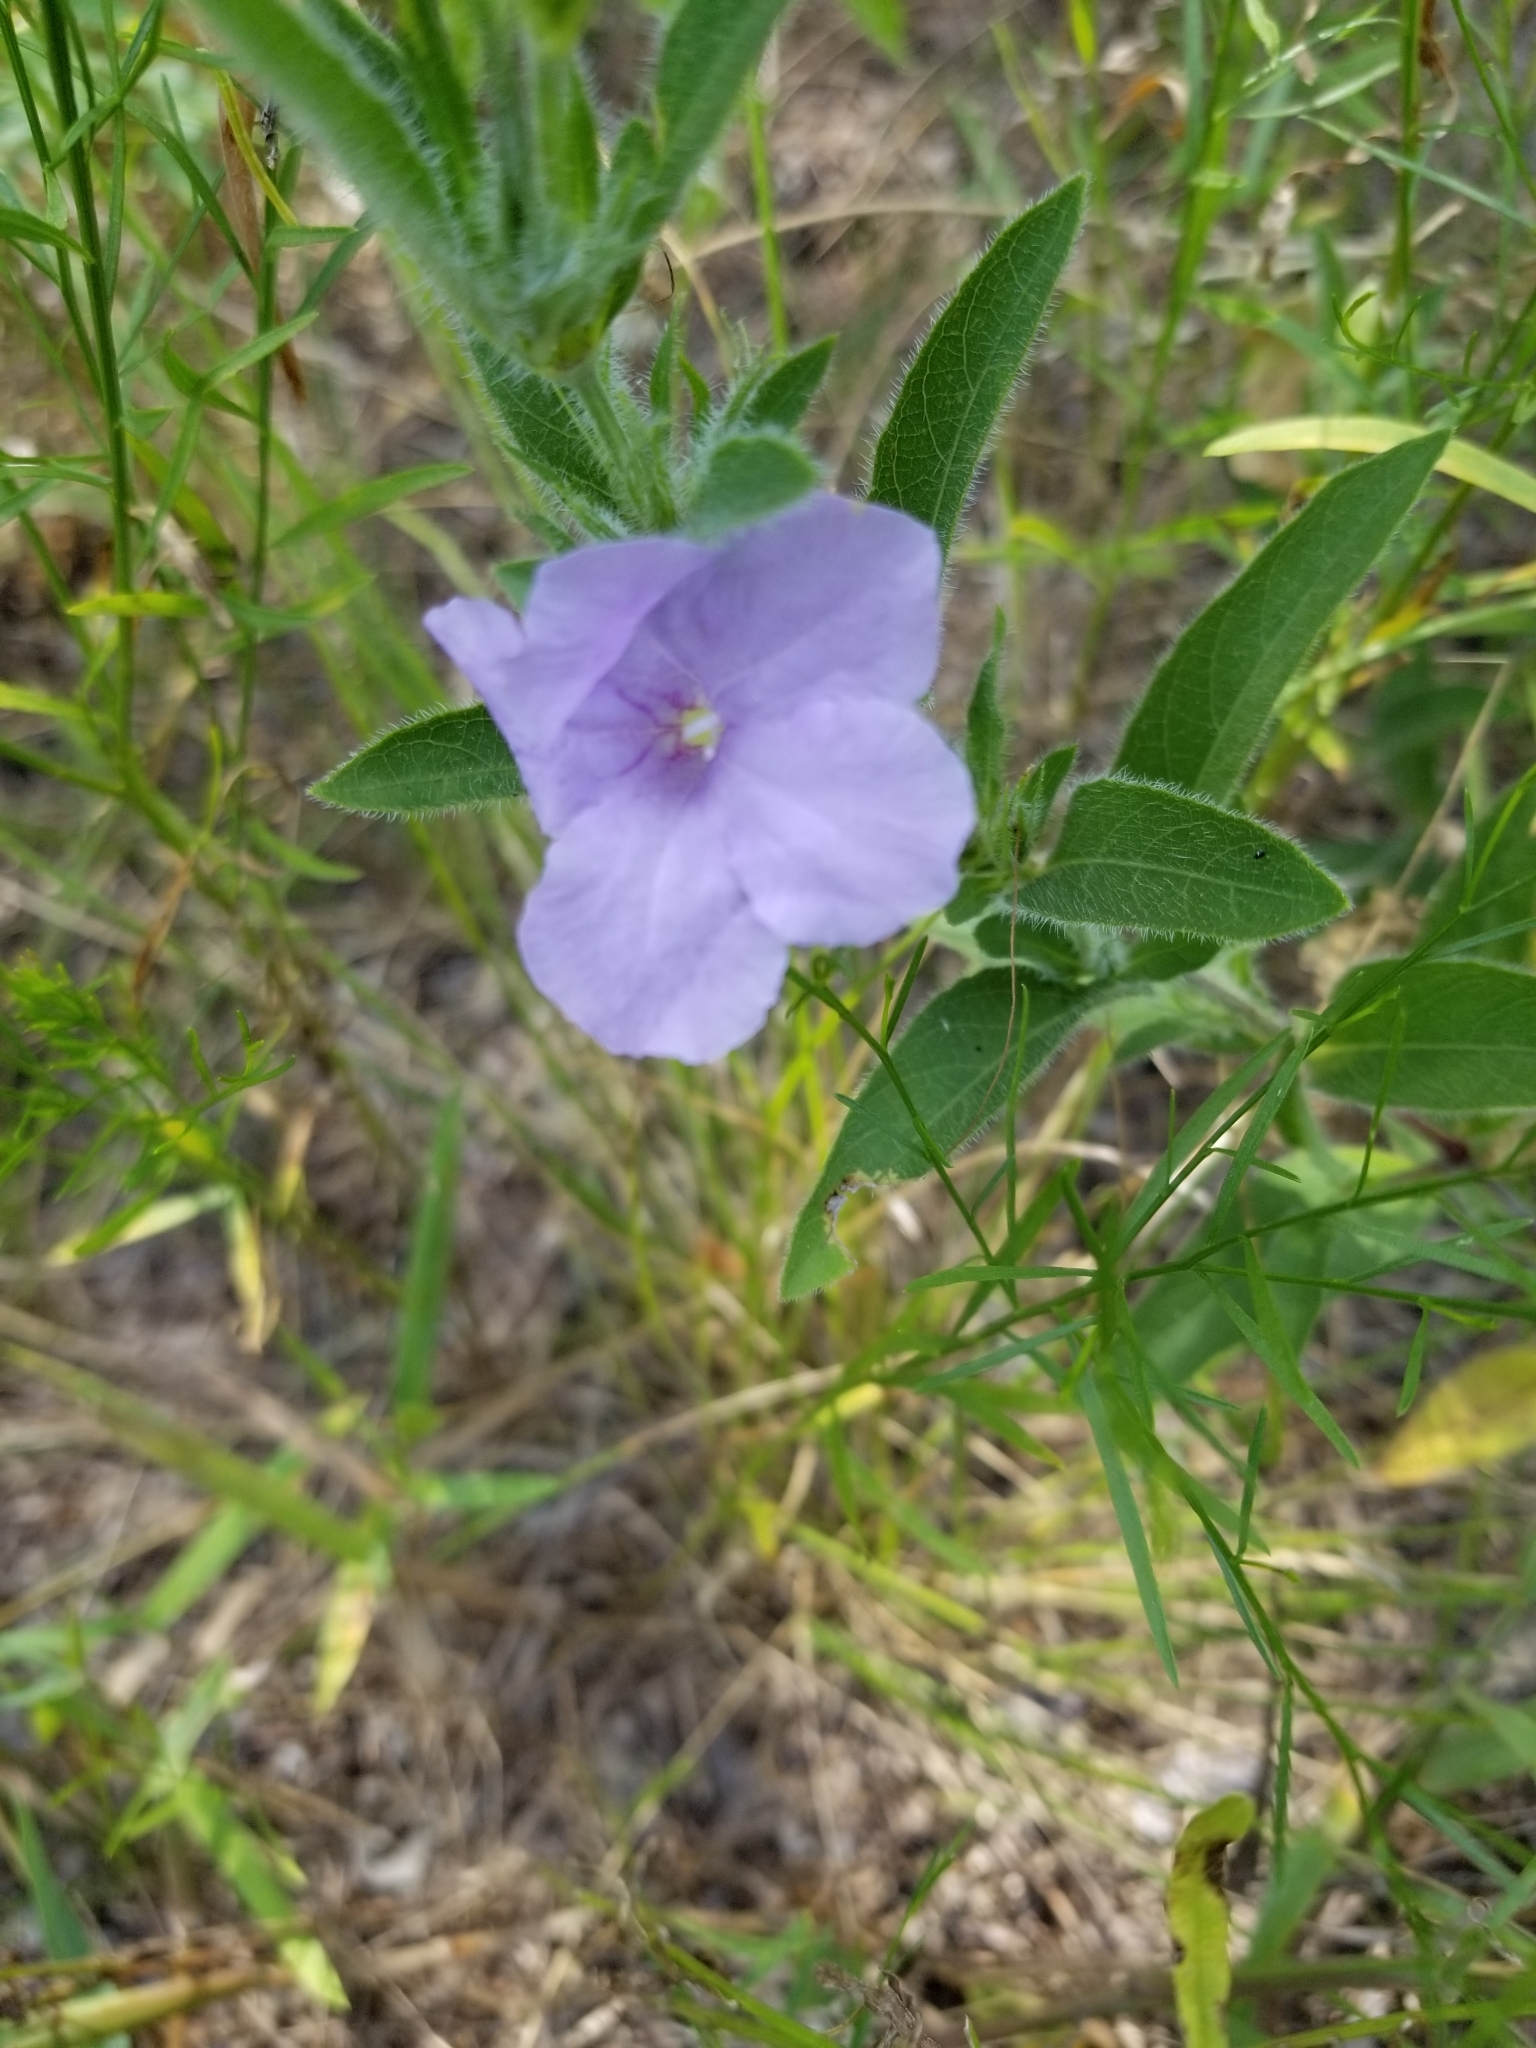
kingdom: Plantae
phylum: Tracheophyta
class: Magnoliopsida
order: Lamiales
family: Acanthaceae
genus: Ruellia
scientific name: Ruellia humilis
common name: Fringe-leaf ruellia
